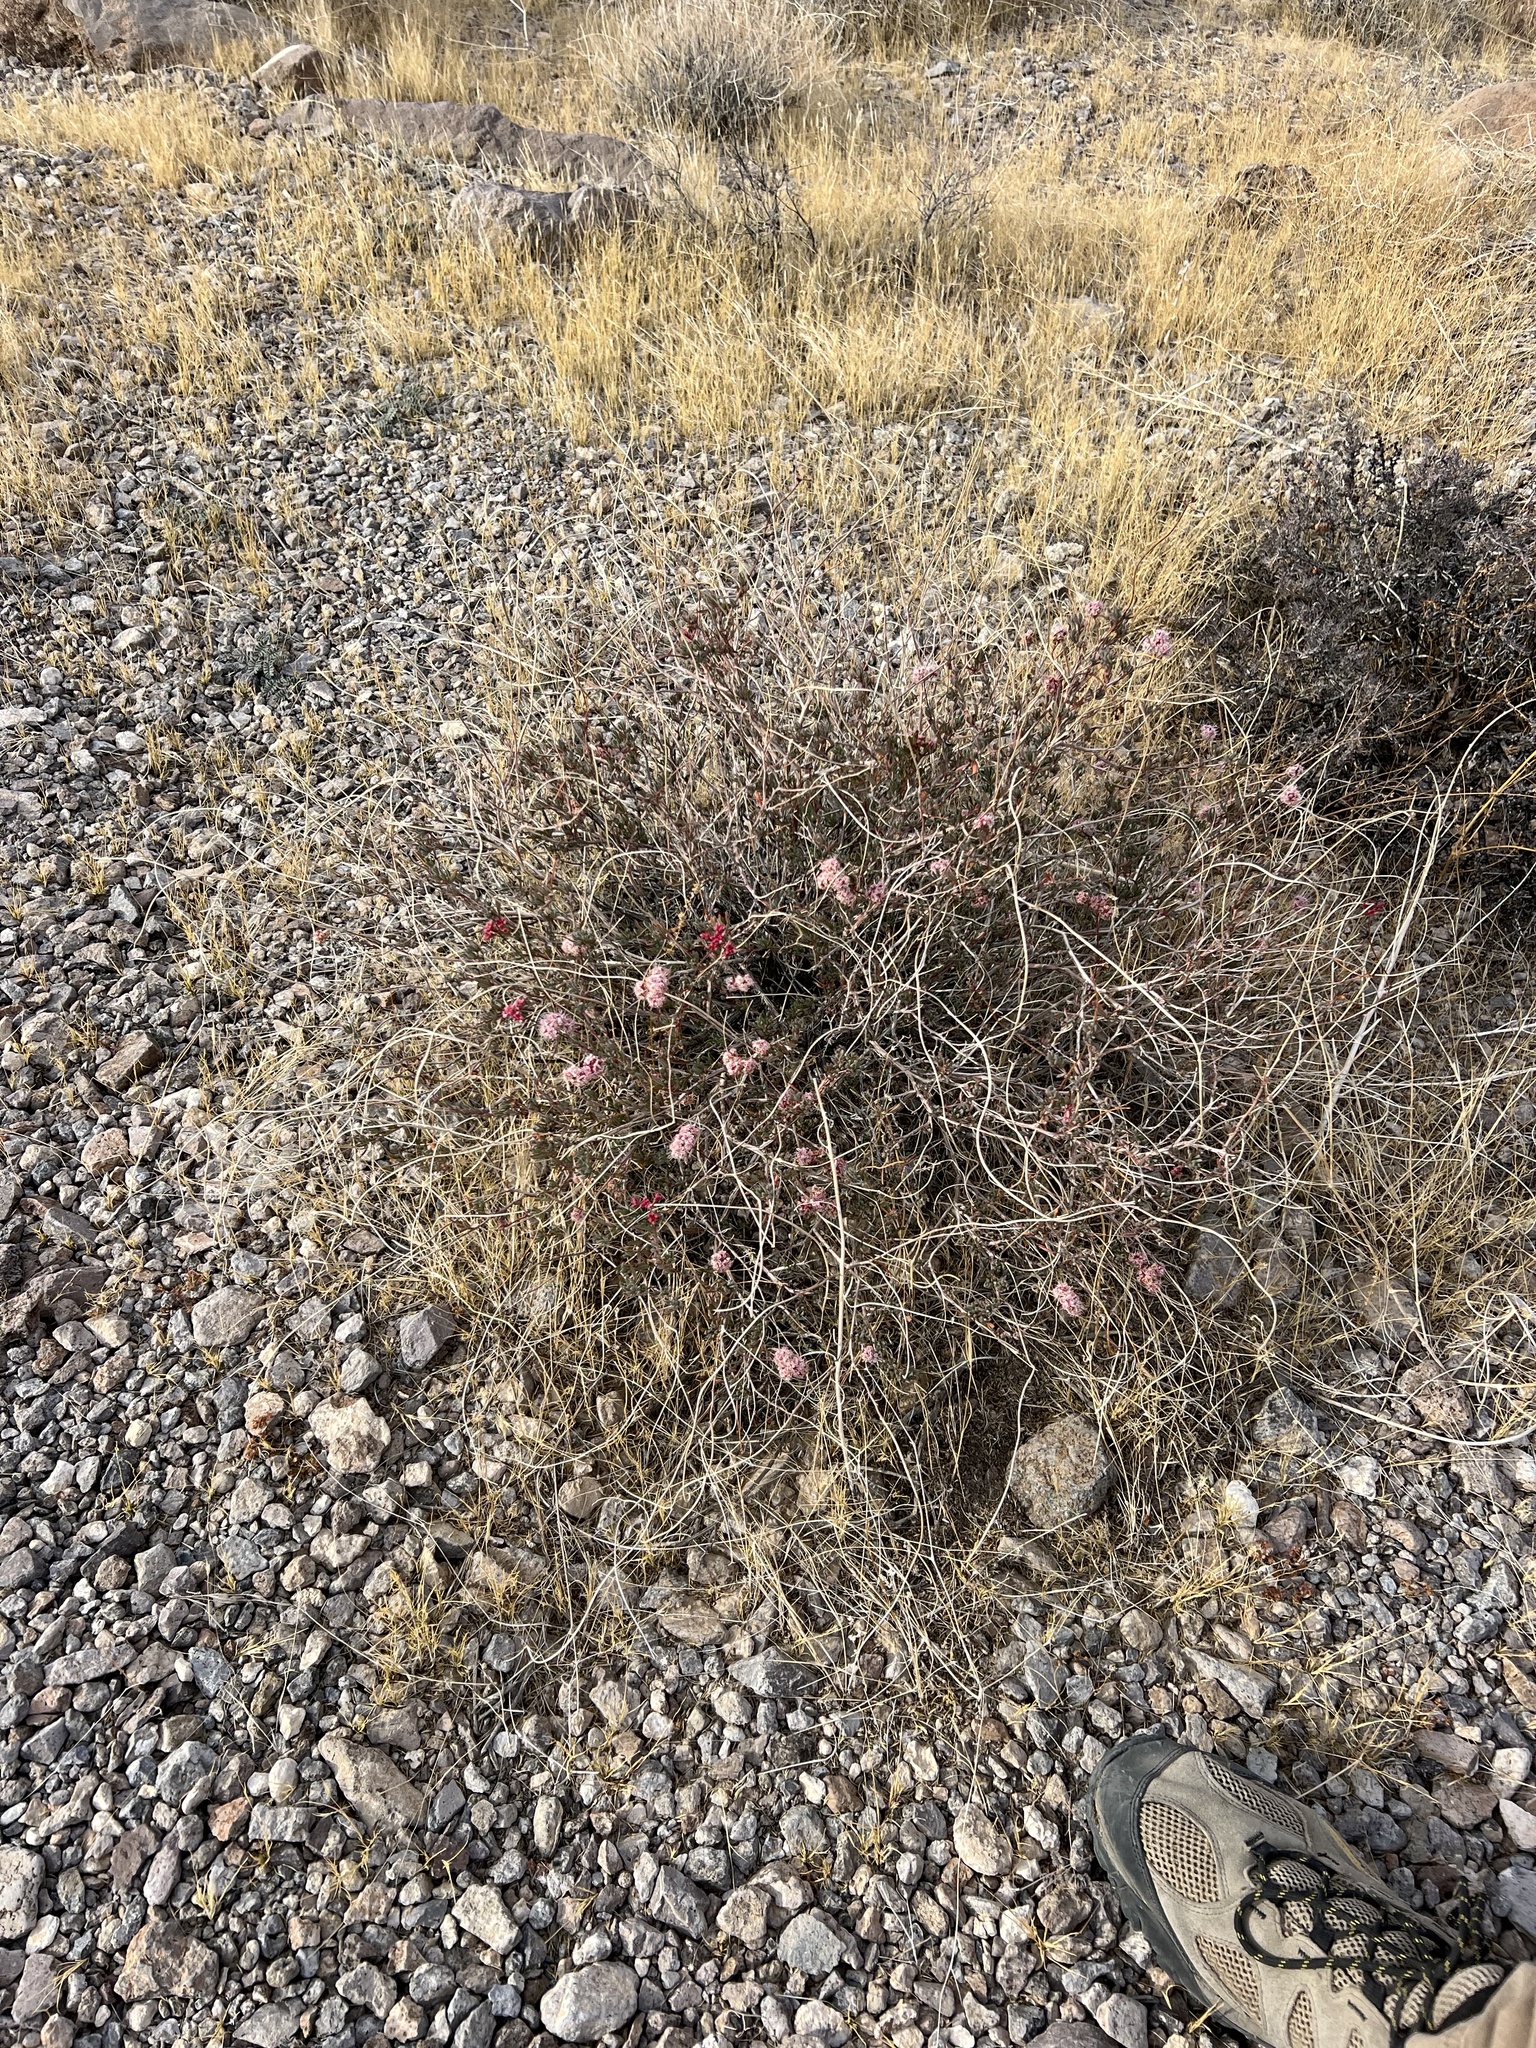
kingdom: Plantae
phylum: Tracheophyta
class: Magnoliopsida
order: Caryophyllales
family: Polygonaceae
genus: Eriogonum
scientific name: Eriogonum fasciculatum
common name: California wild buckwheat
